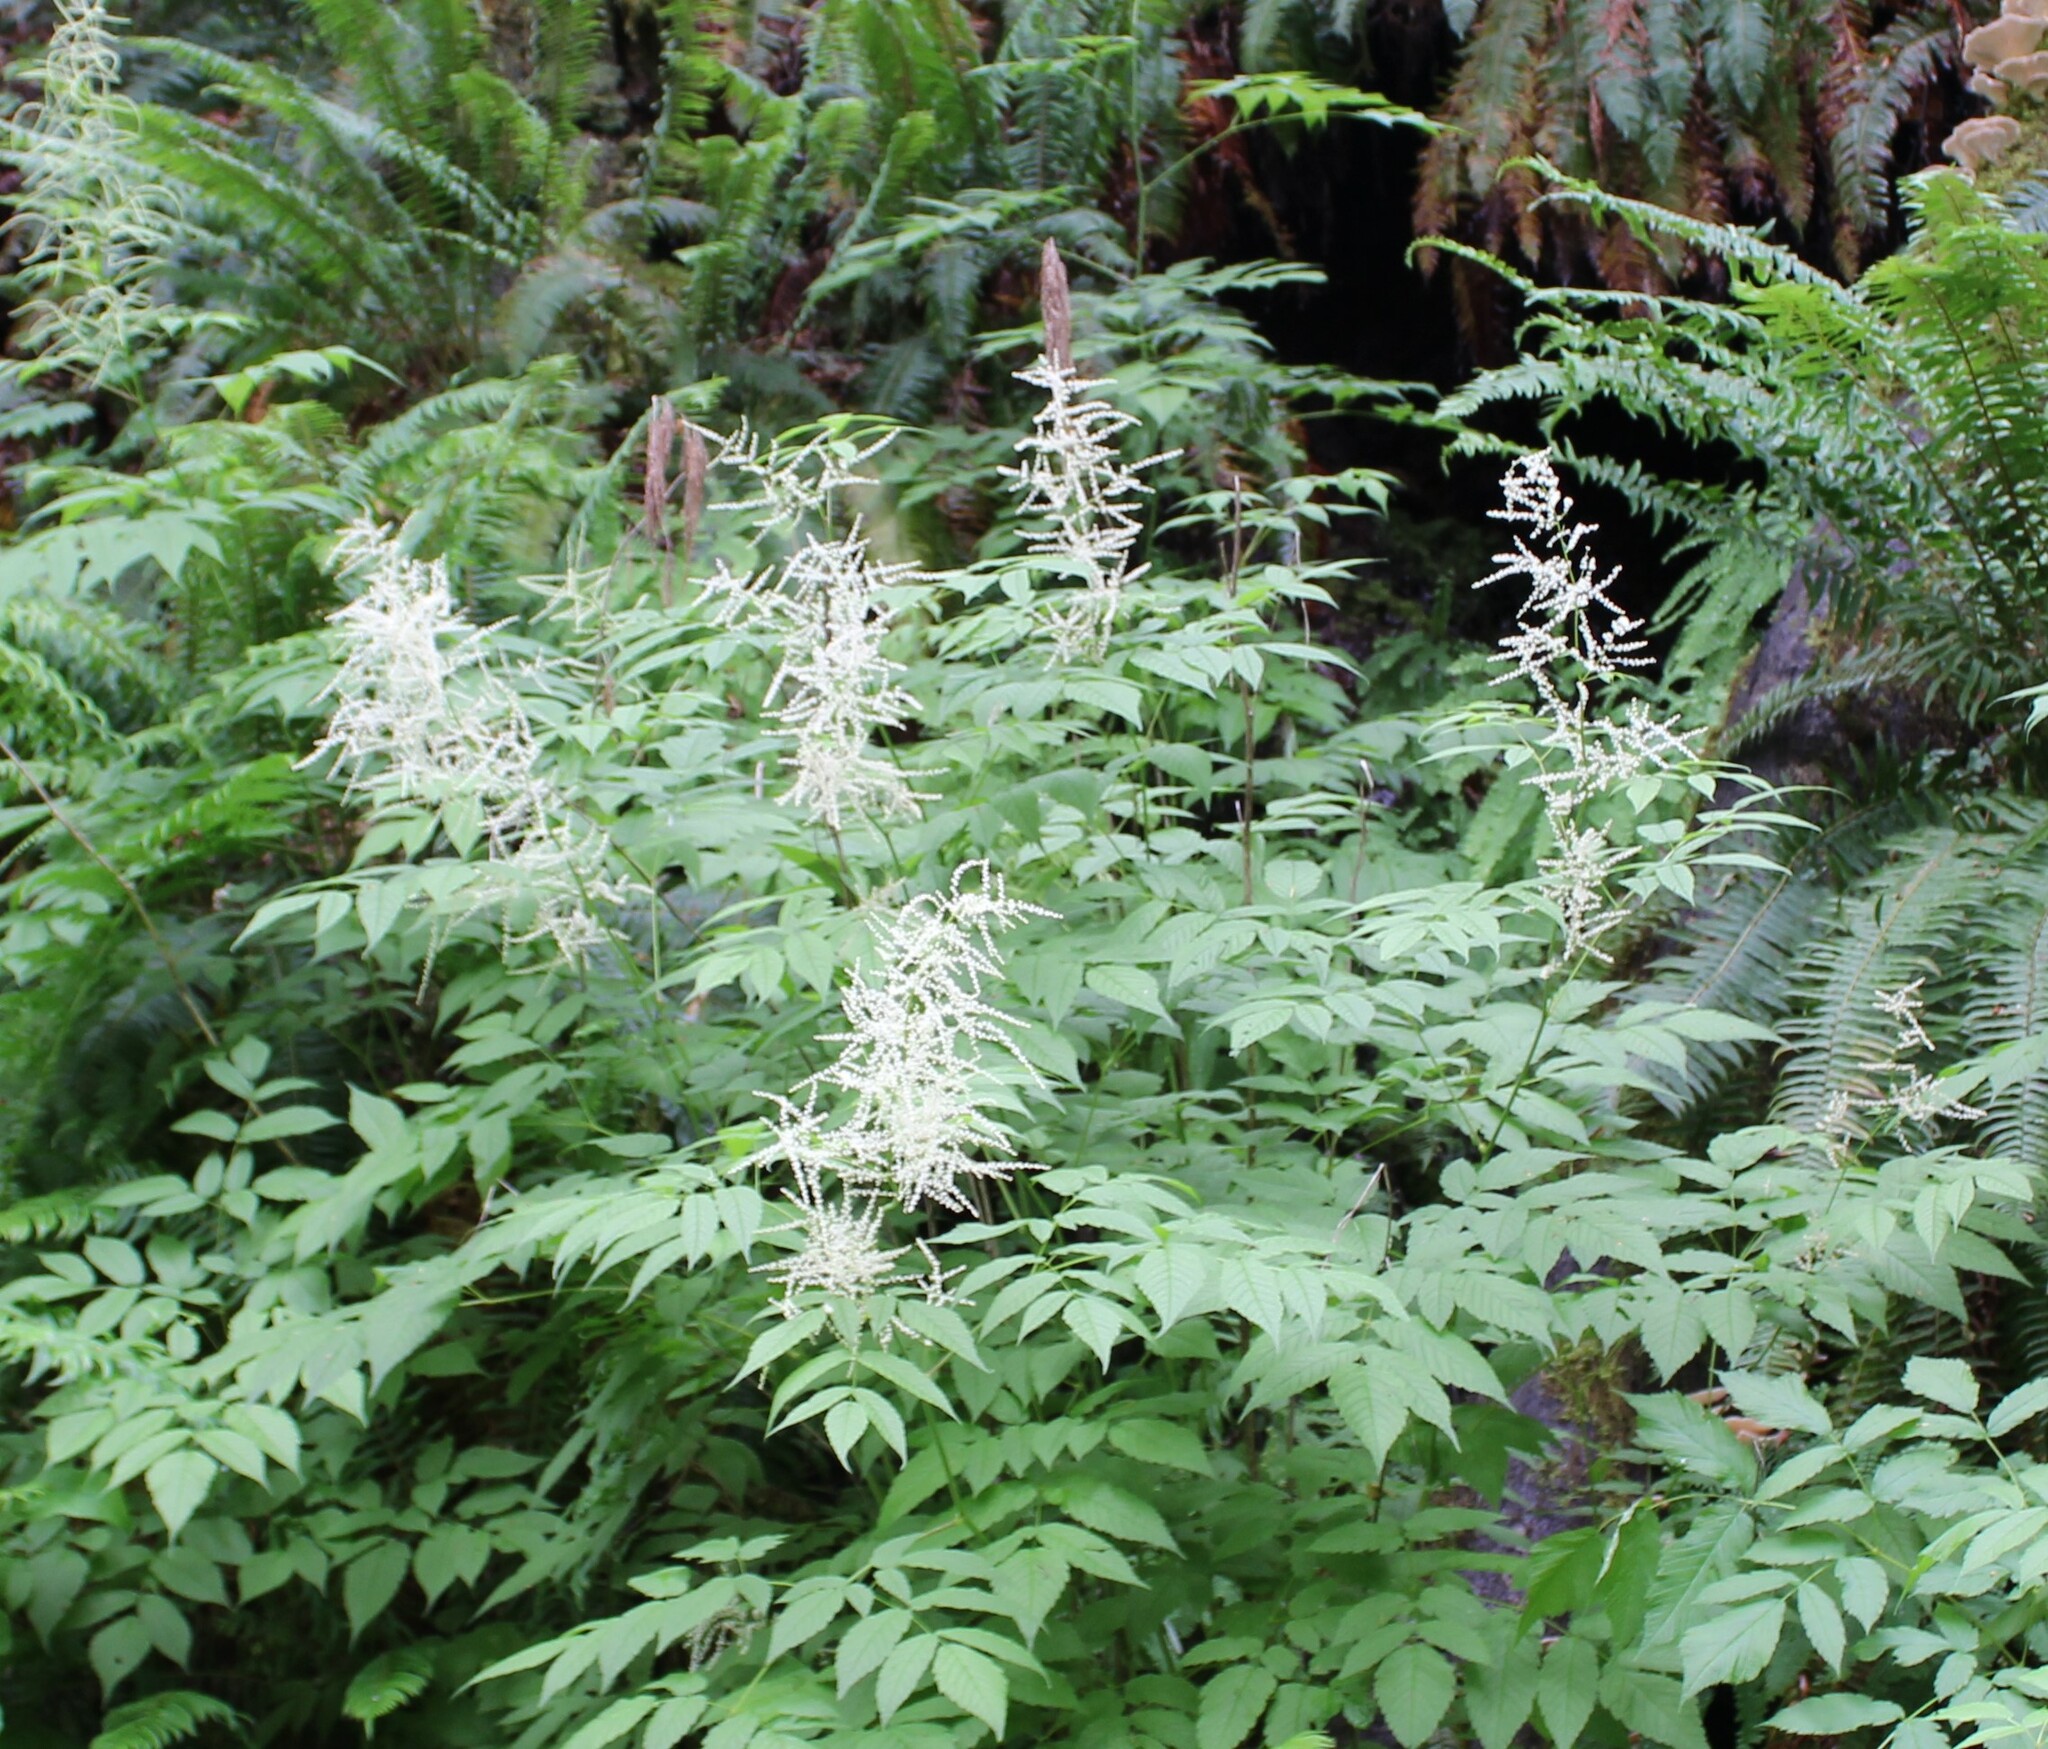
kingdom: Plantae
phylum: Tracheophyta
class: Magnoliopsida
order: Rosales
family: Rosaceae
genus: Aruncus
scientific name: Aruncus dioicus
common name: Buck's-beard
